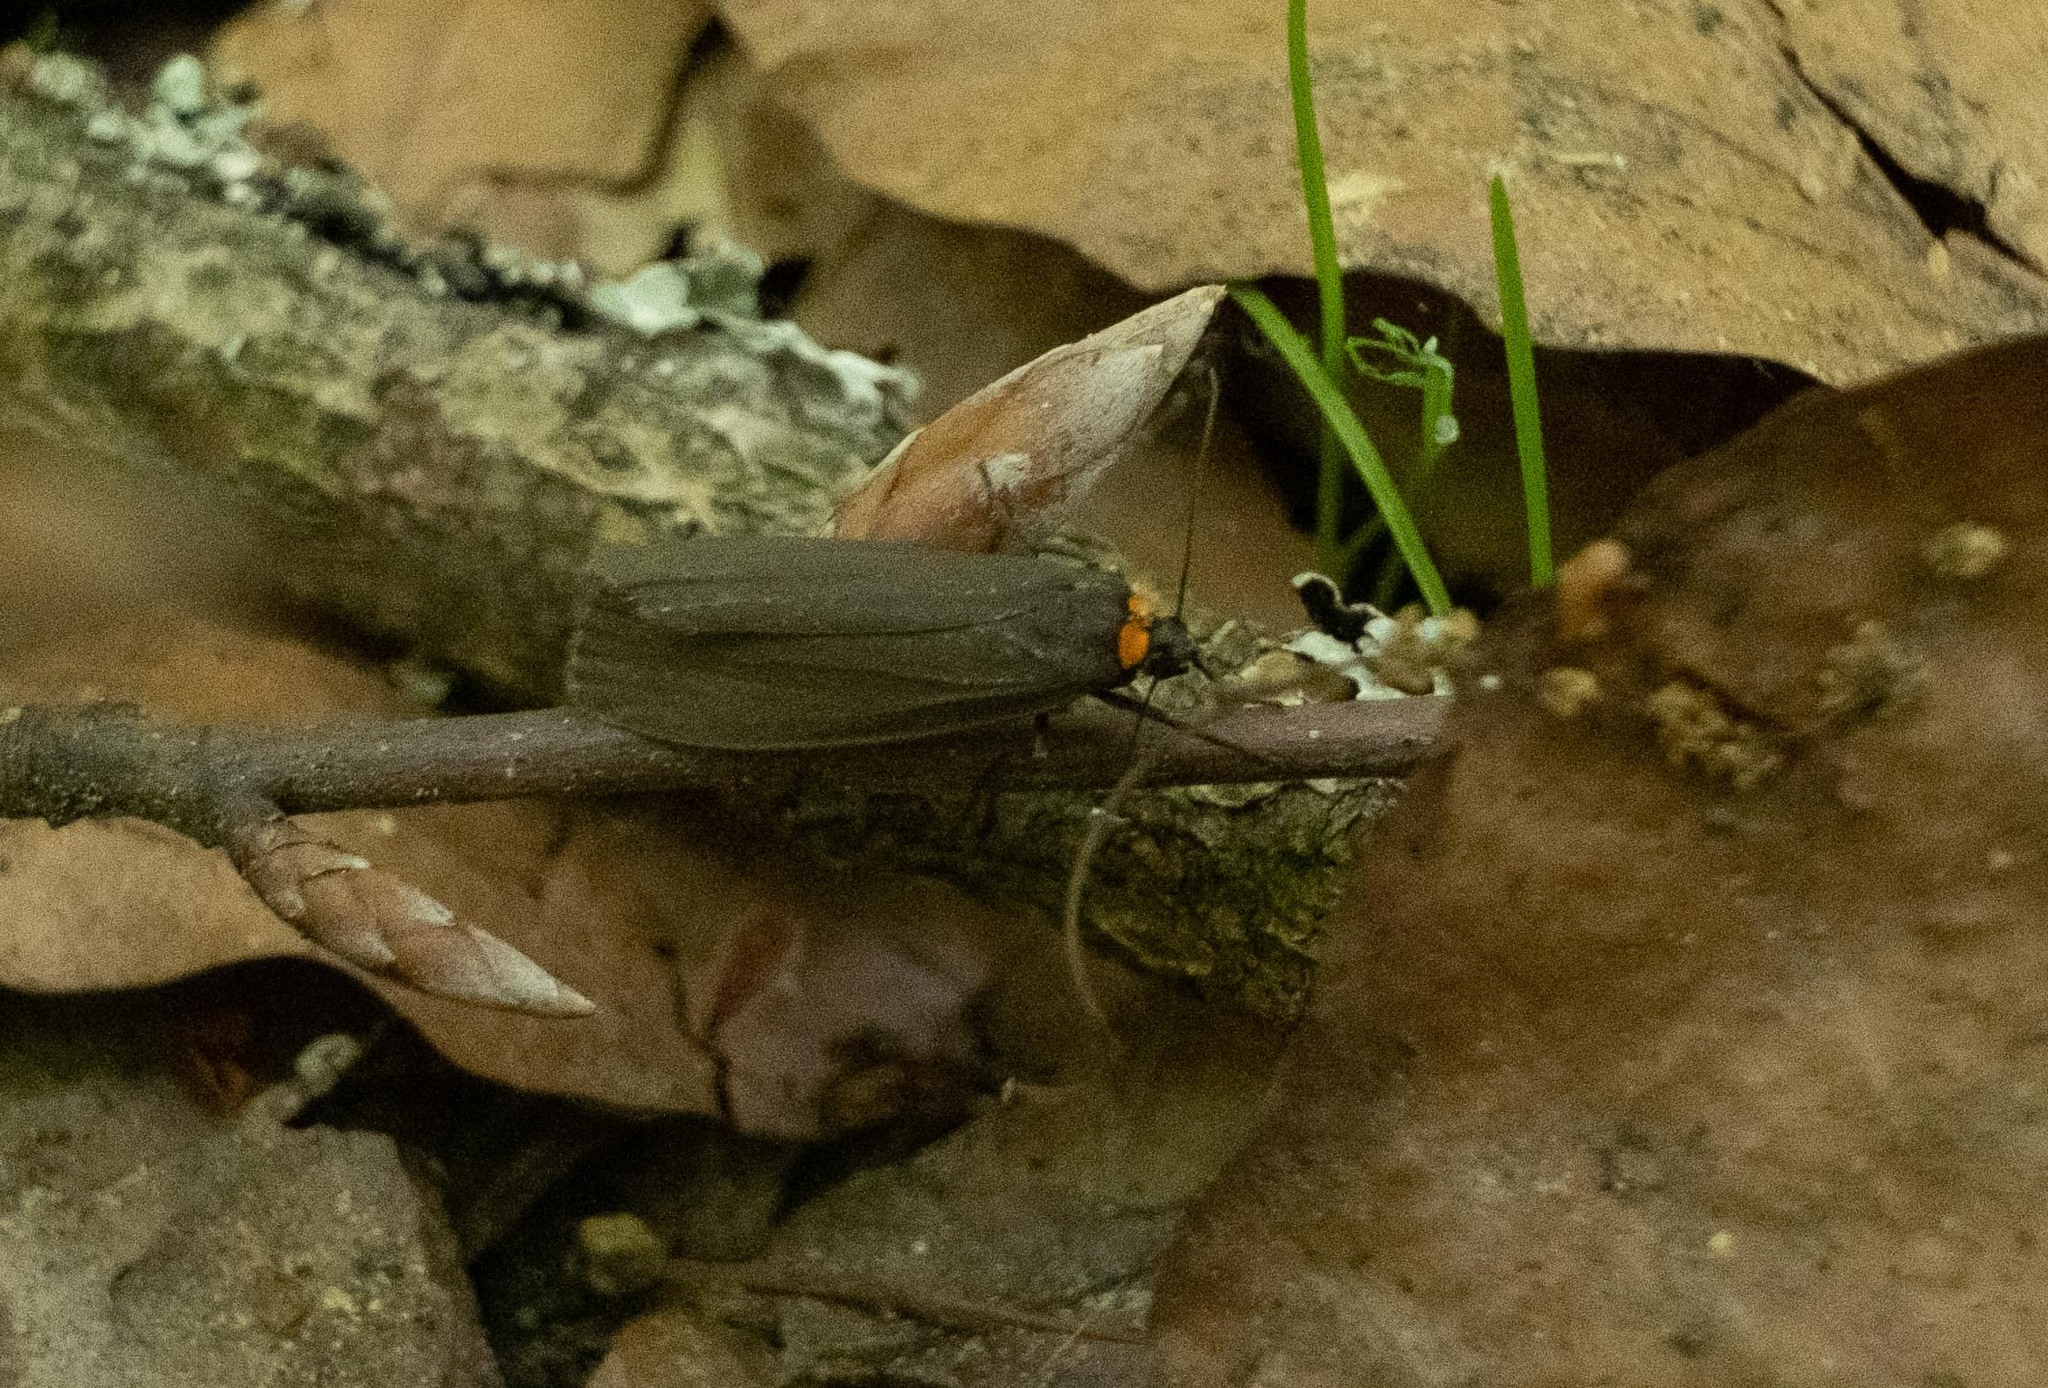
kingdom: Animalia
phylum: Arthropoda
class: Insecta
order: Lepidoptera
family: Erebidae
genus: Atolmis
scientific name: Atolmis rubricollis
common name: Red-necked footman
